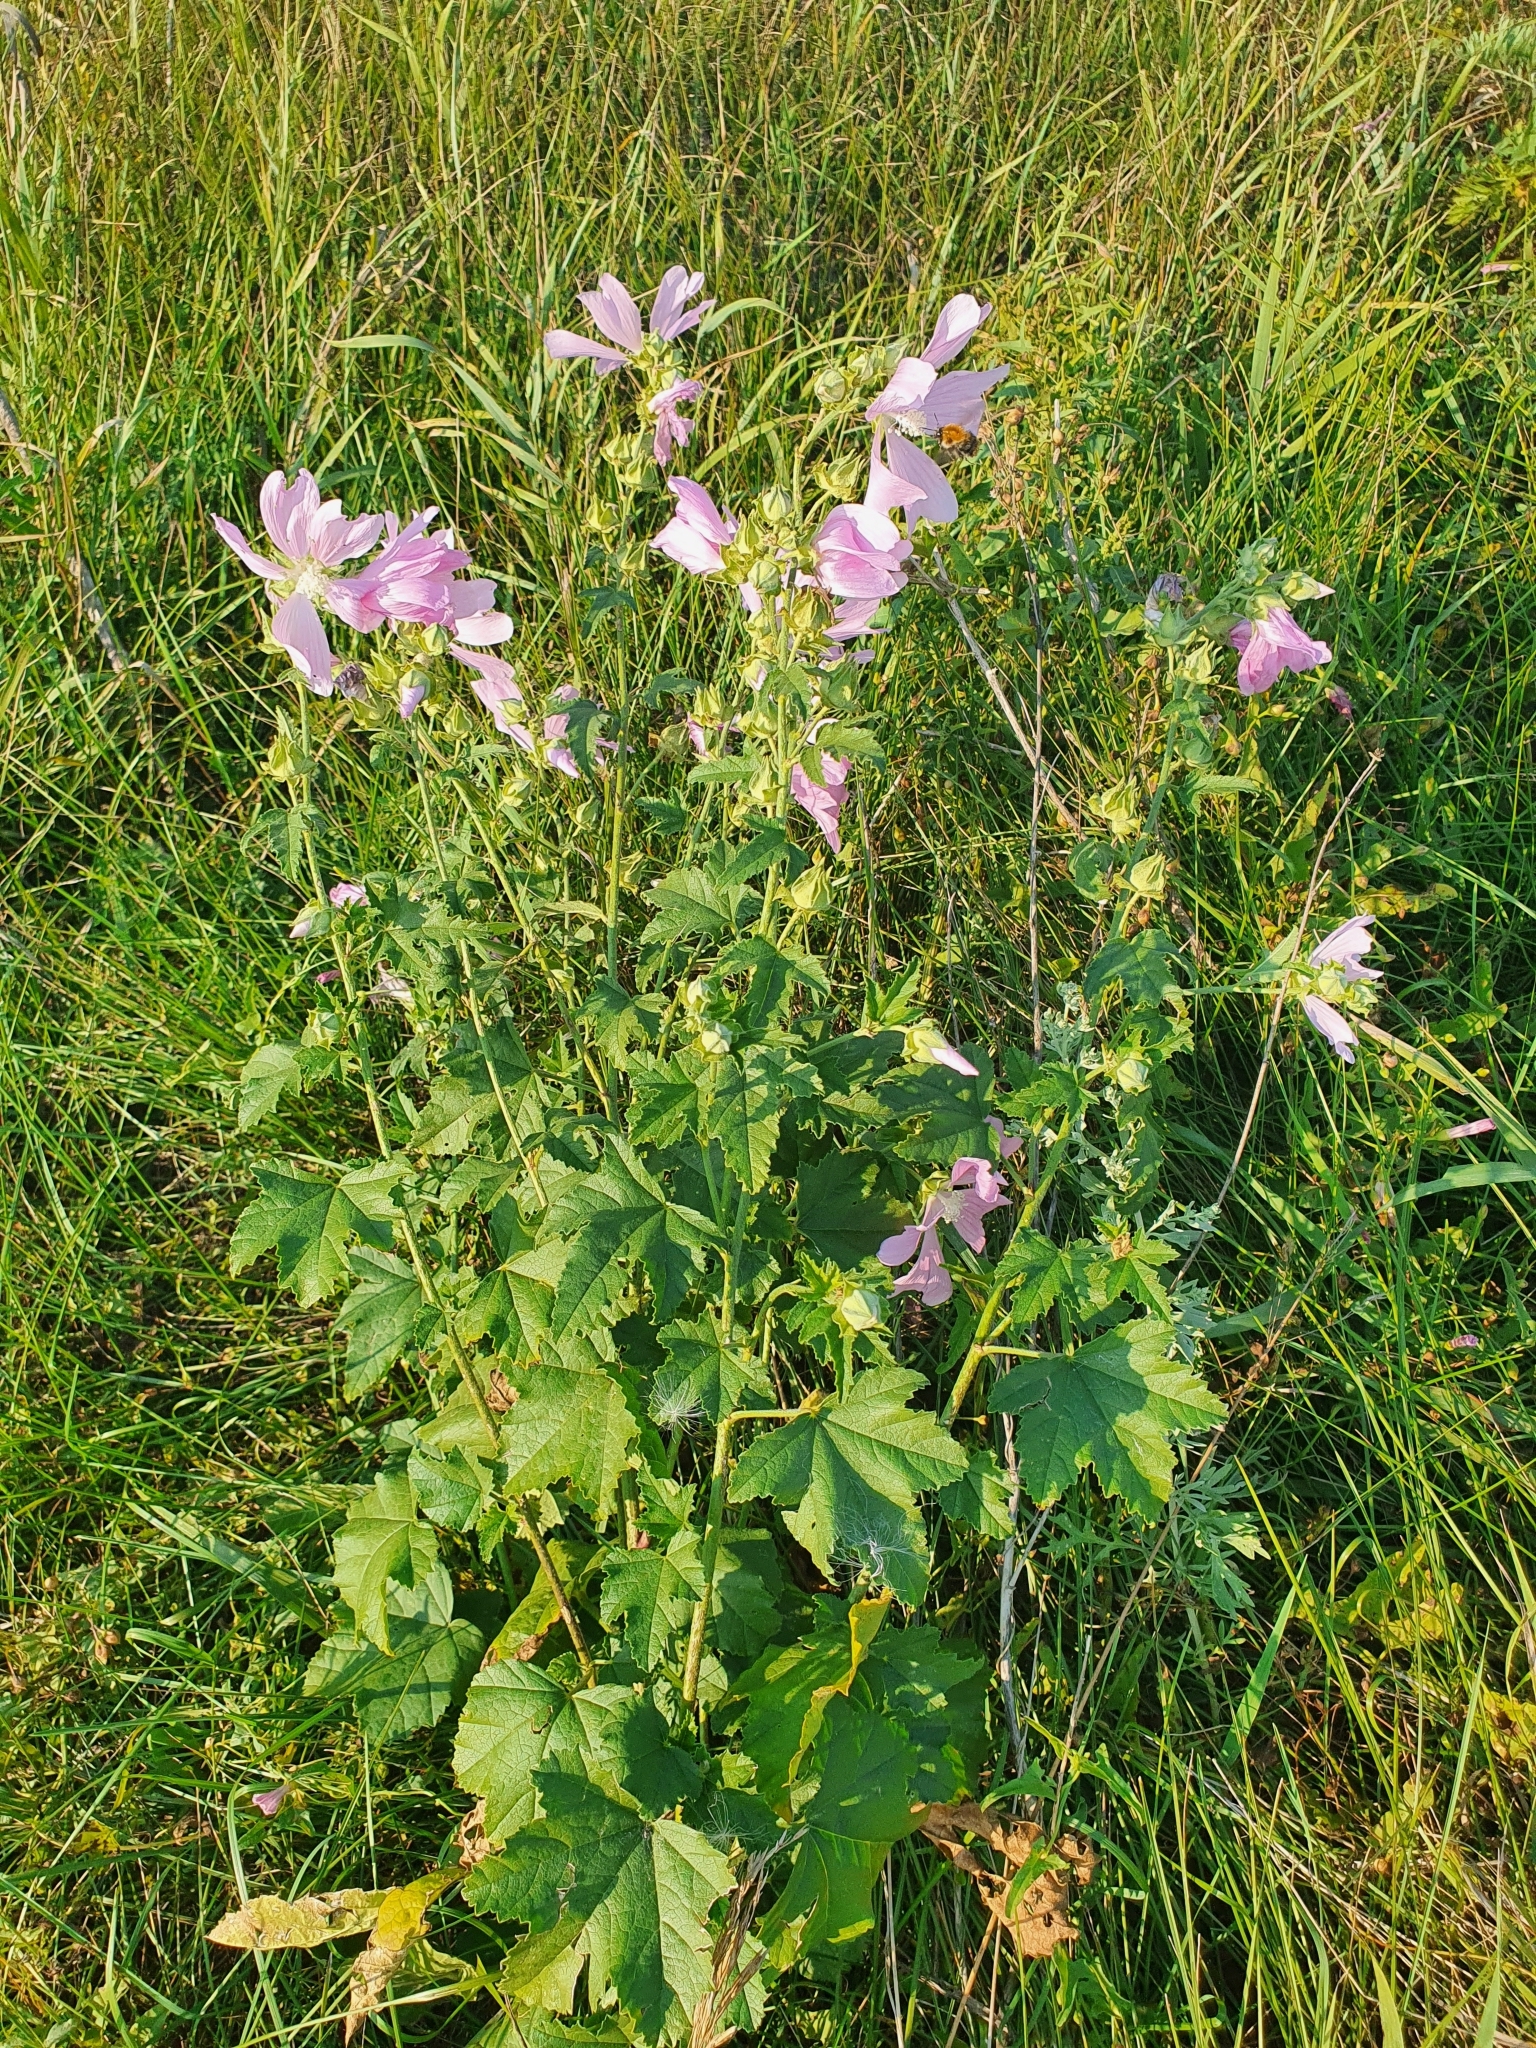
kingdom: Plantae
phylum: Tracheophyta
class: Magnoliopsida
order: Malvales
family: Malvaceae
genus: Malva
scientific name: Malva thuringiaca
